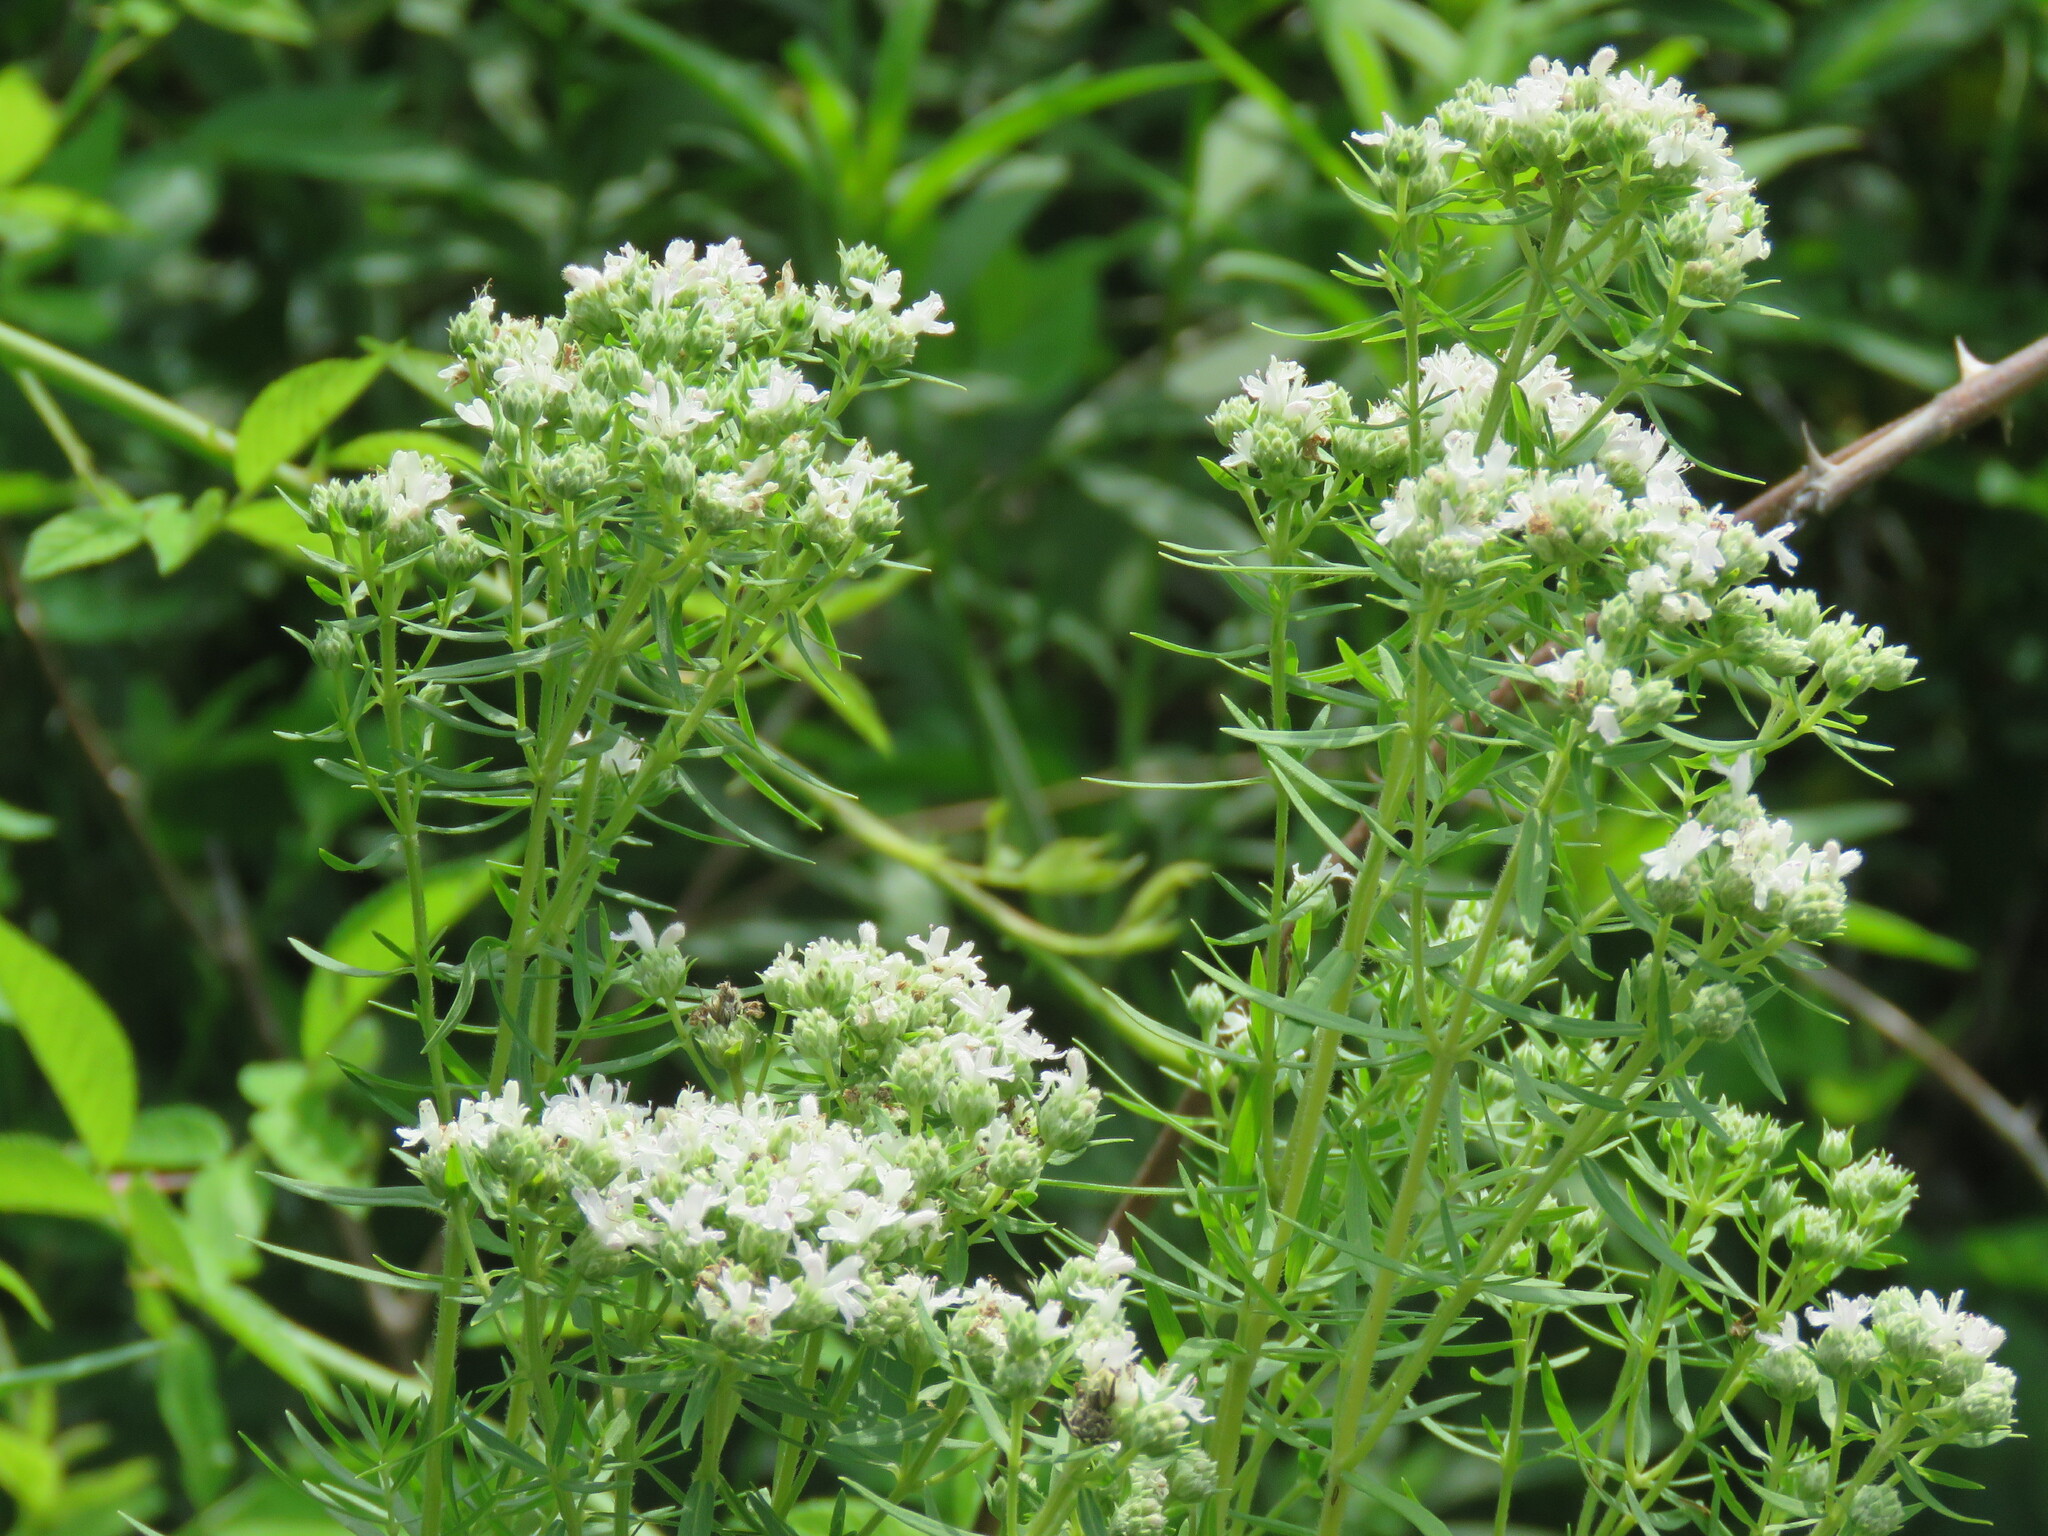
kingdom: Plantae
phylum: Tracheophyta
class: Magnoliopsida
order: Lamiales
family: Lamiaceae
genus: Pycnanthemum
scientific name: Pycnanthemum tenuifolium
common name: Narrow-leaf mountain-mint
